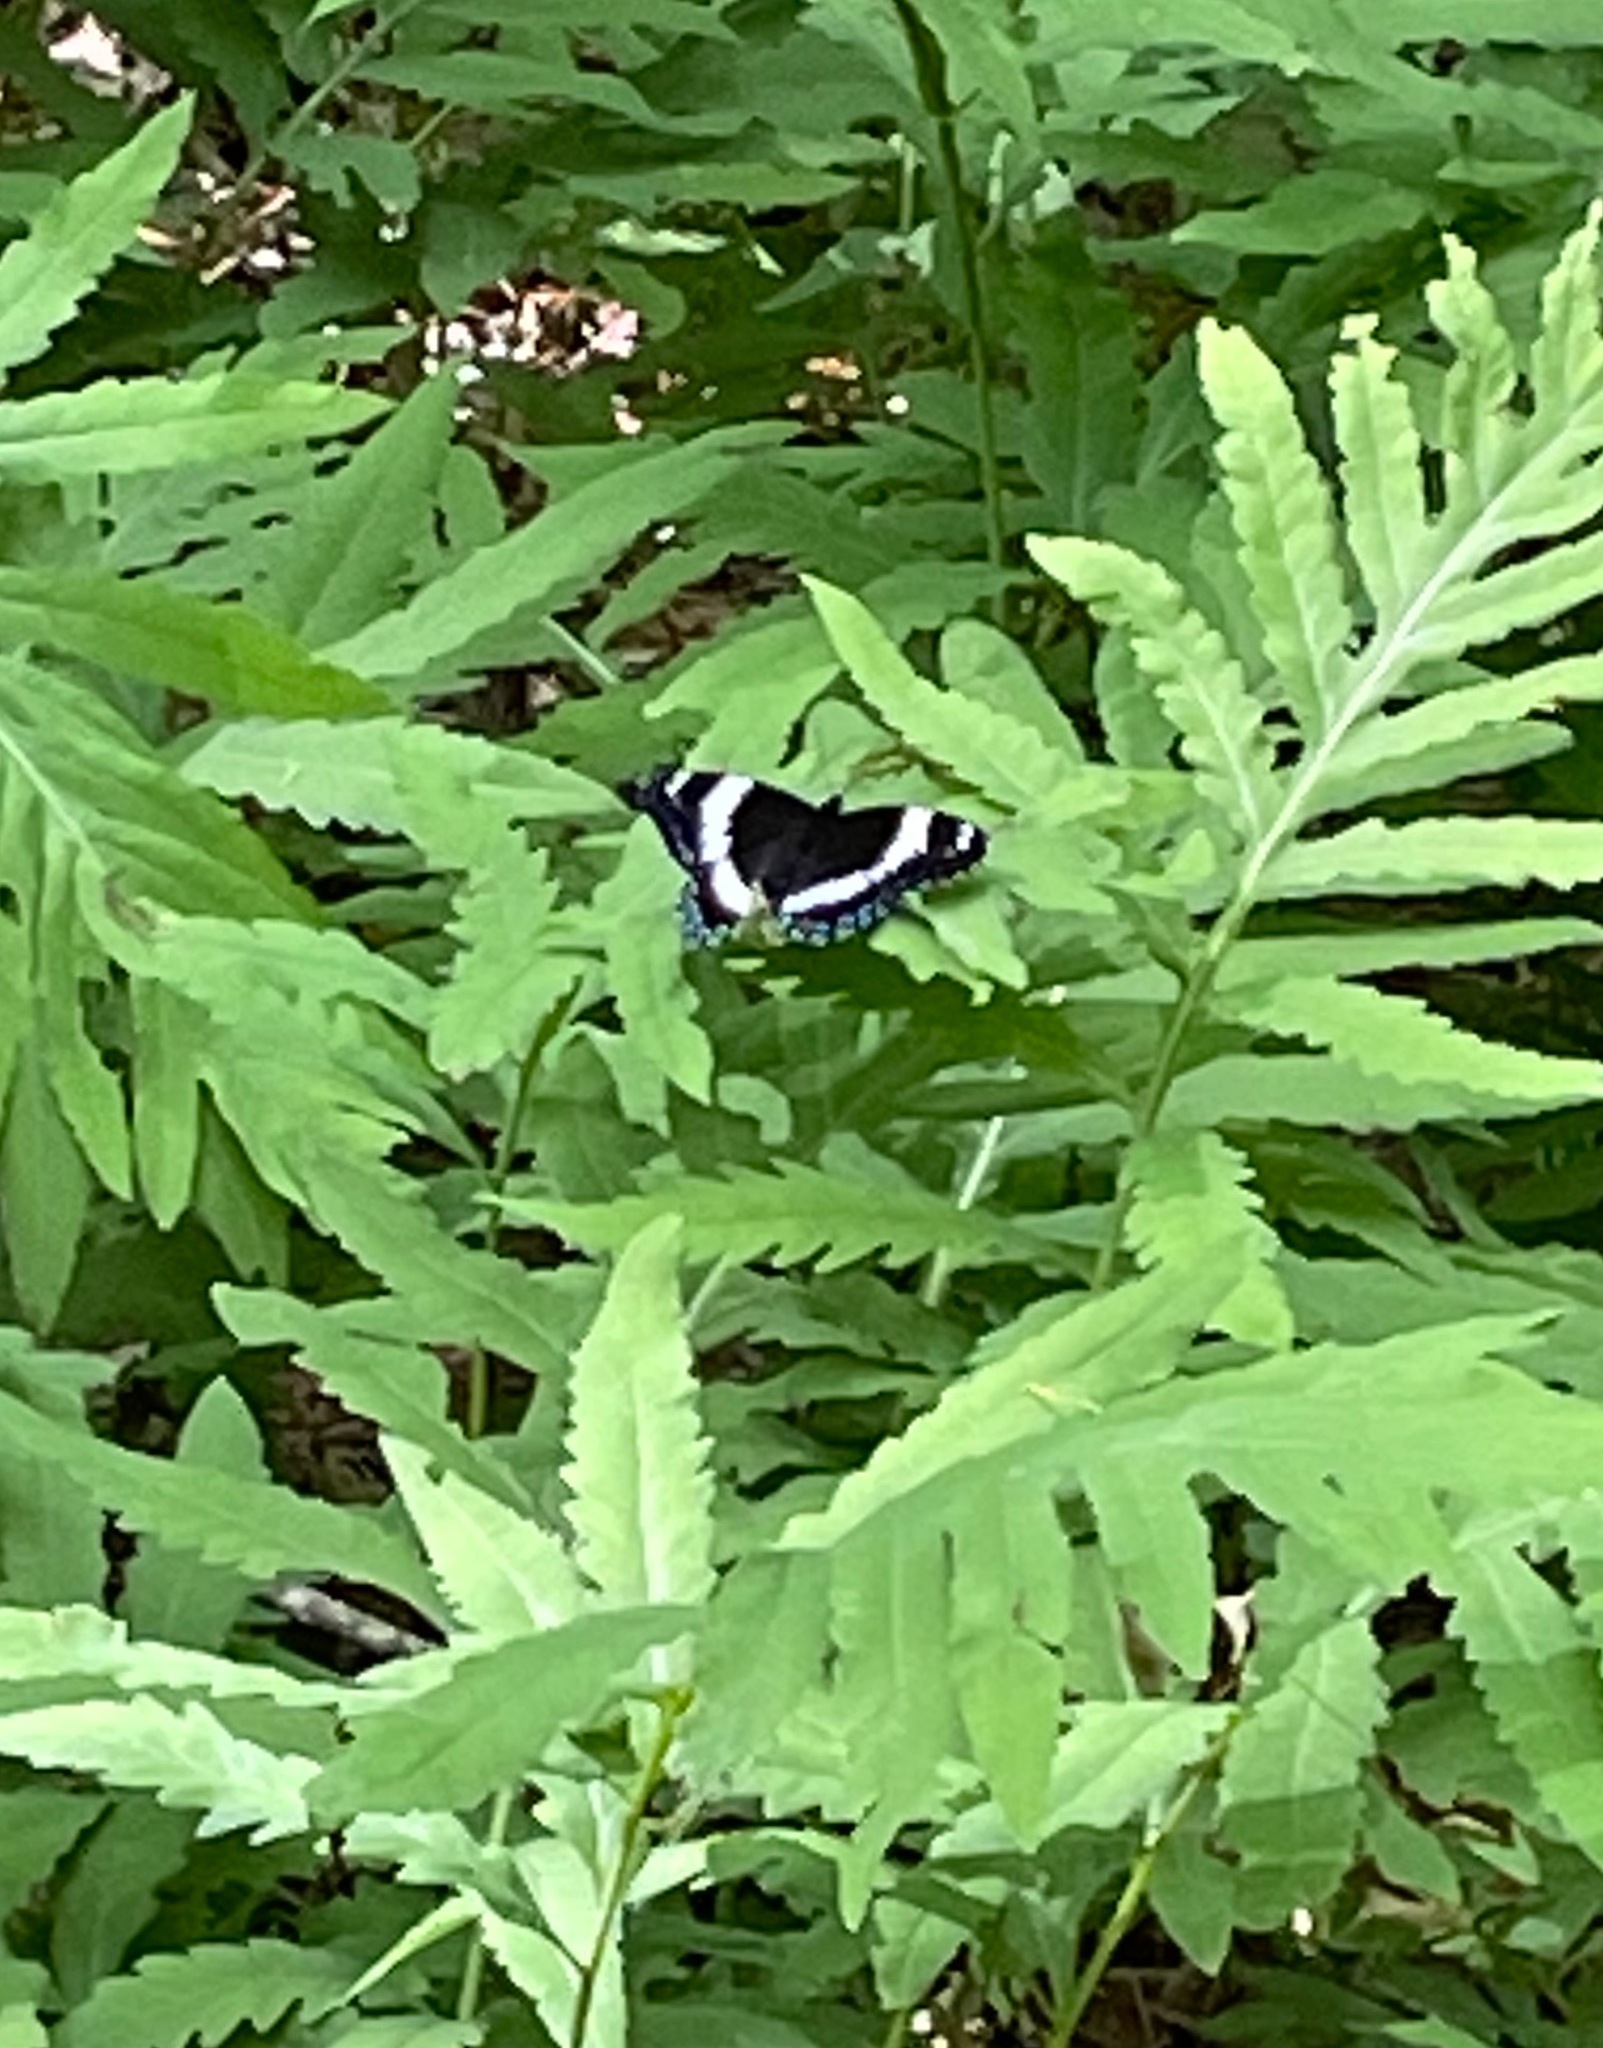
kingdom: Animalia
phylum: Arthropoda
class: Insecta
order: Lepidoptera
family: Nymphalidae
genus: Limenitis
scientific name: Limenitis arthemis
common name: Red-spotted admiral
